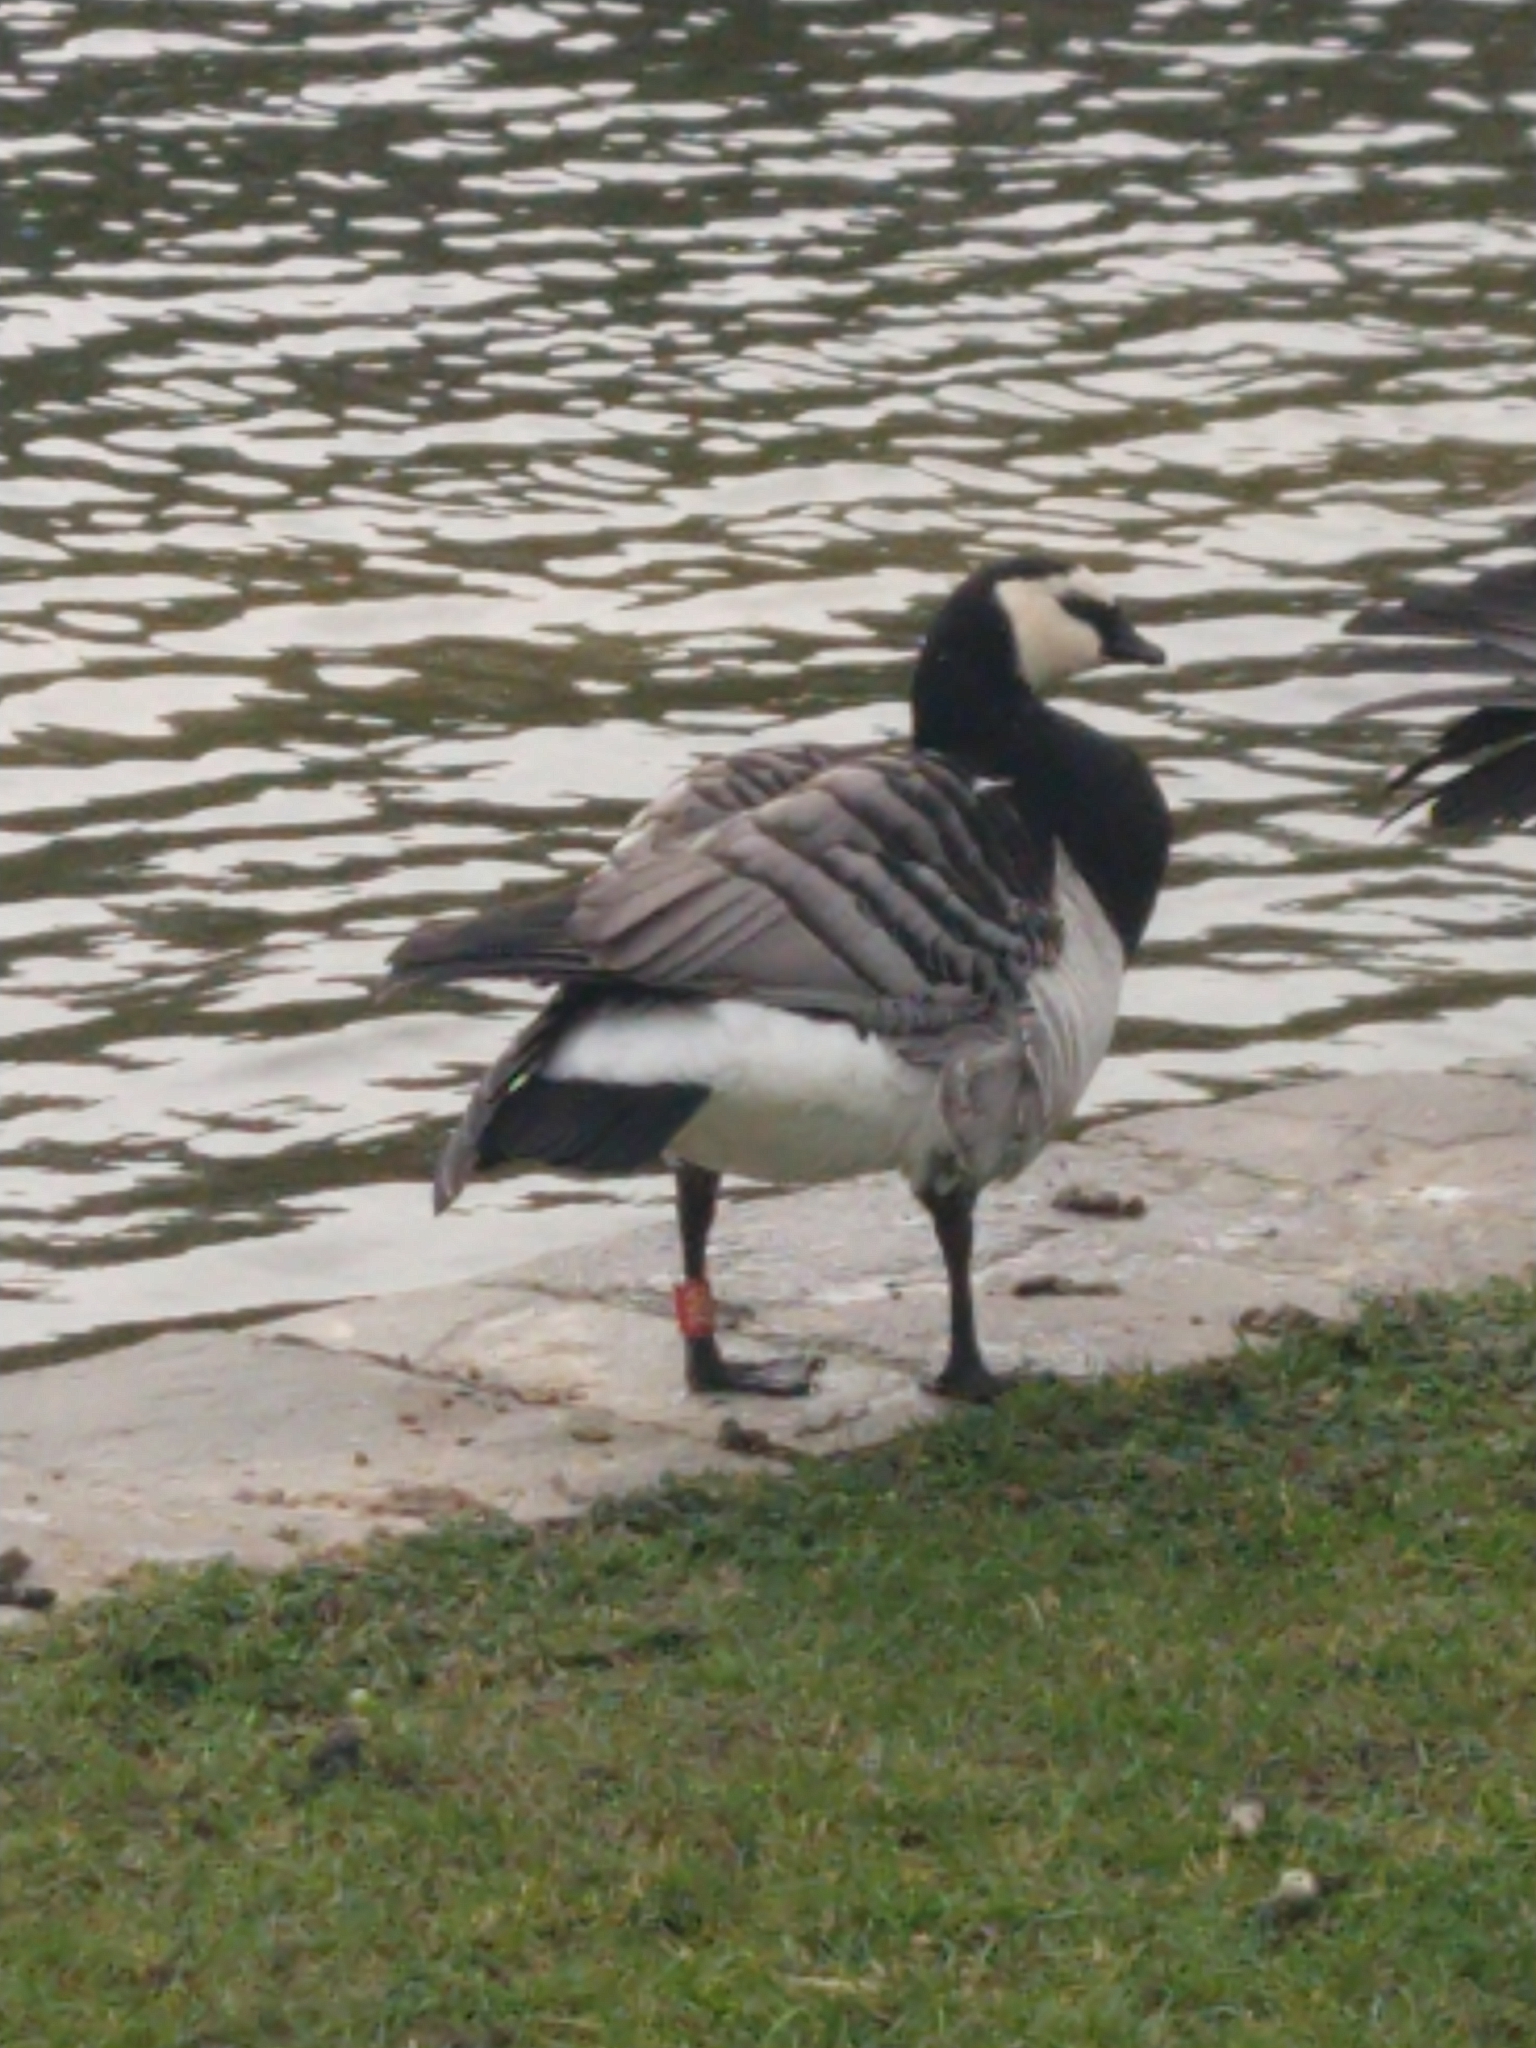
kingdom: Animalia
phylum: Chordata
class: Aves
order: Anseriformes
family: Anatidae
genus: Branta
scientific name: Branta leucopsis
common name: Barnacle goose
